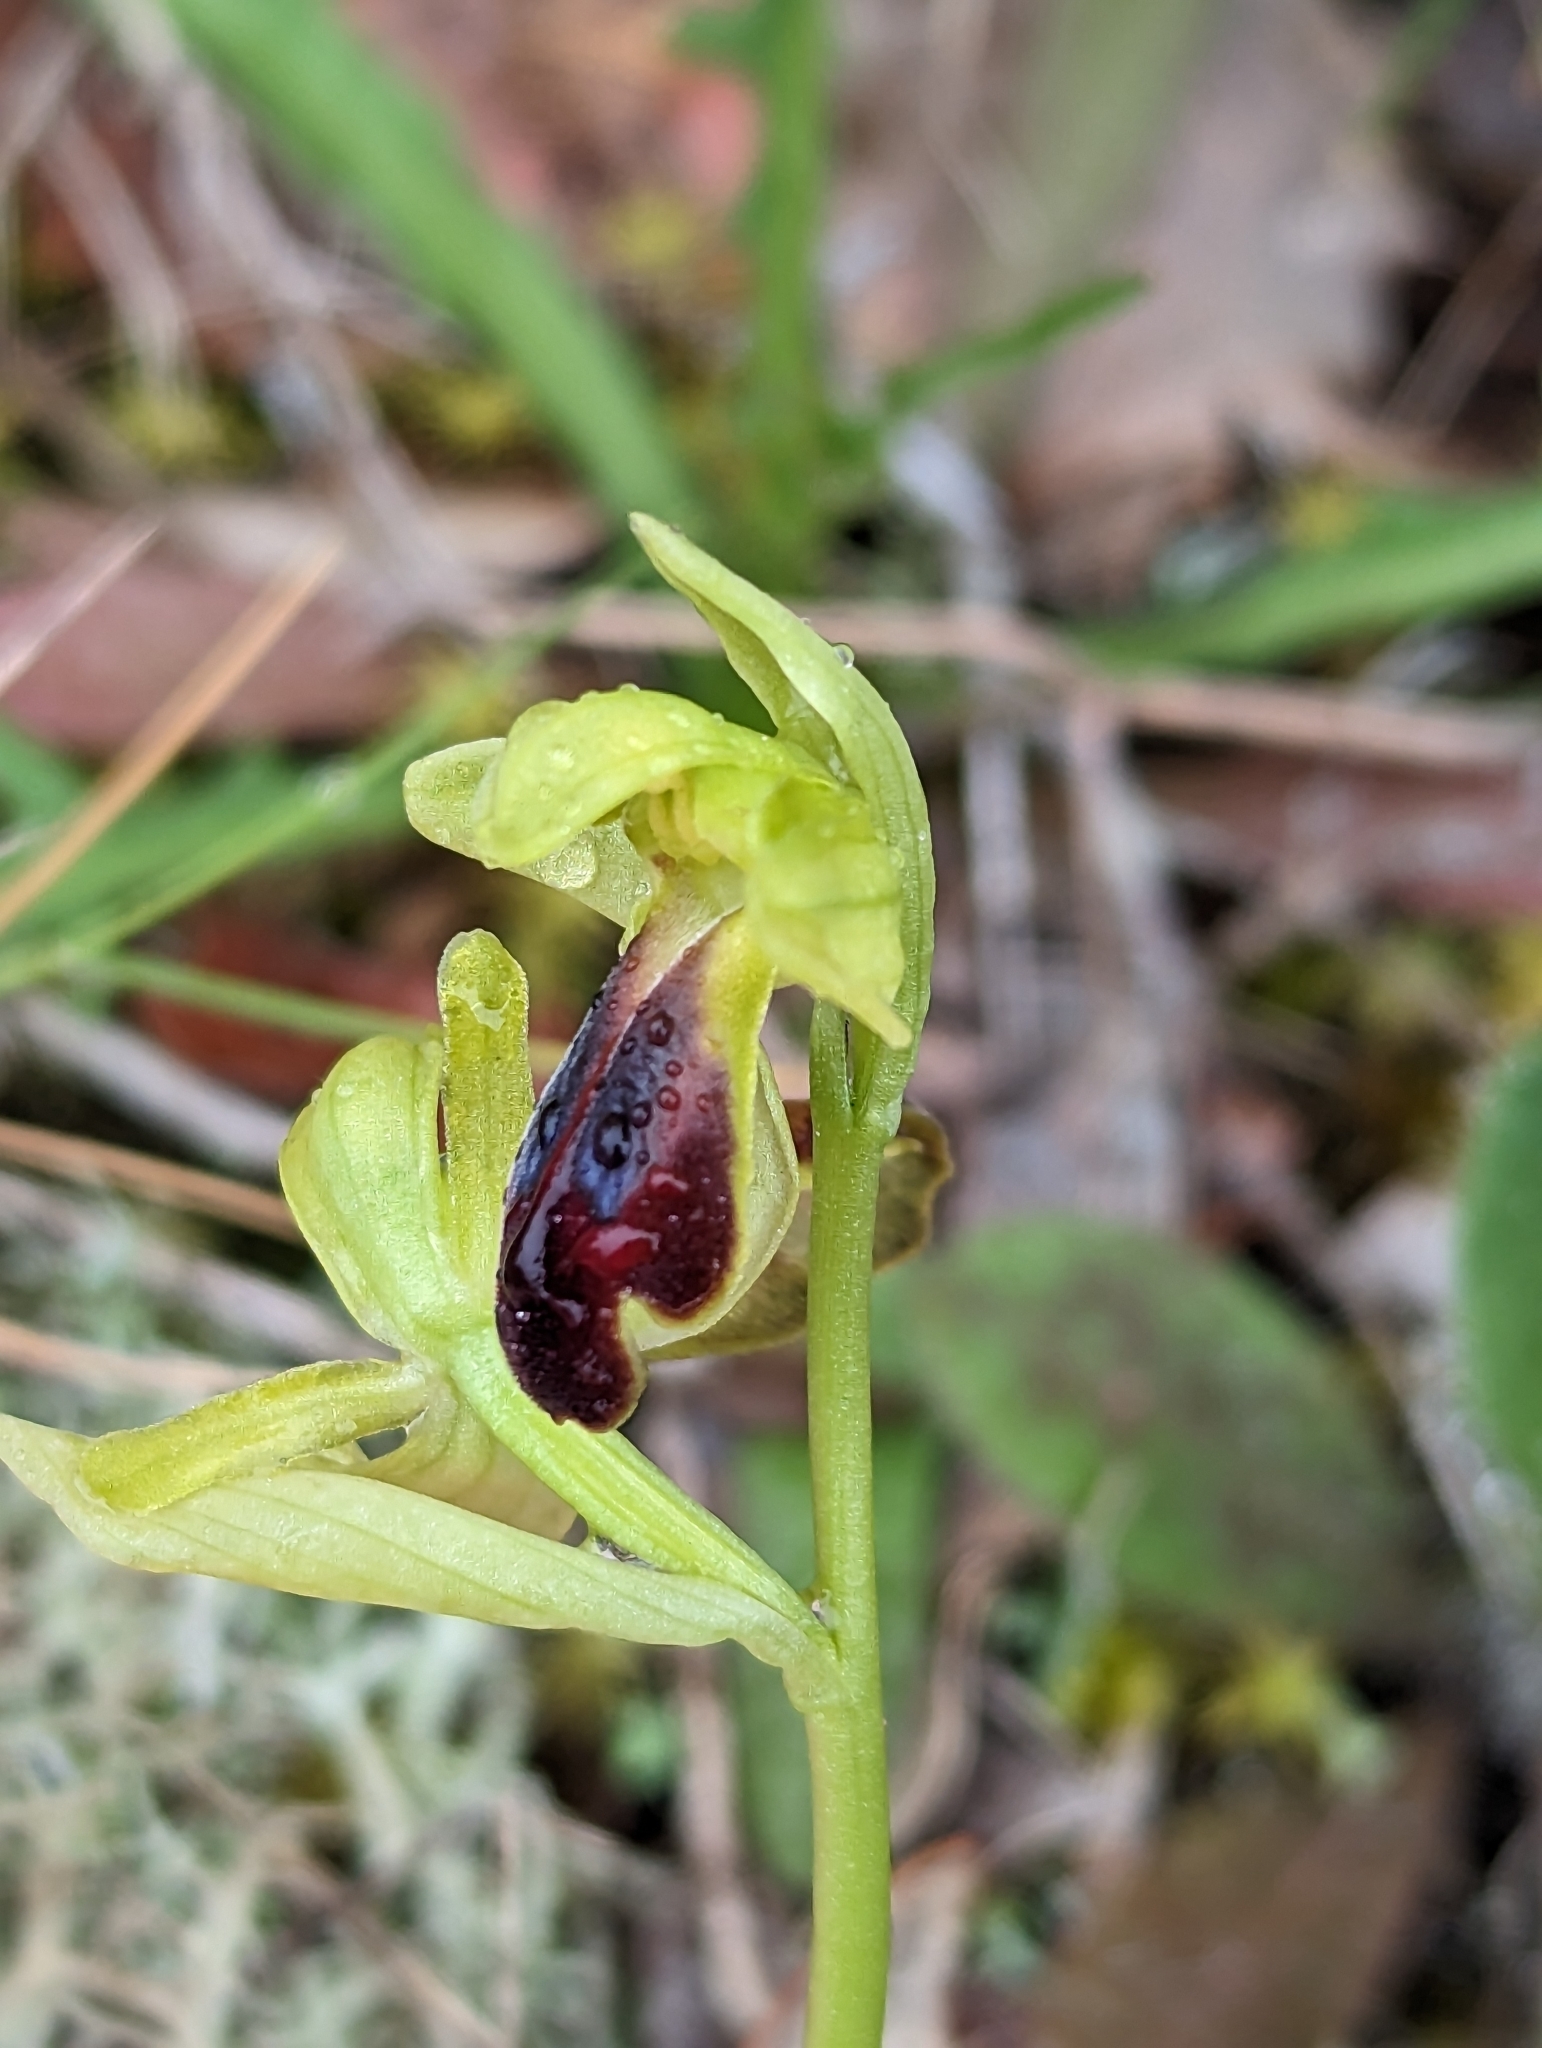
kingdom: Plantae
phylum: Tracheophyta
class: Liliopsida
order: Asparagales
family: Orchidaceae
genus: Ophrys
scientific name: Ophrys fusca
